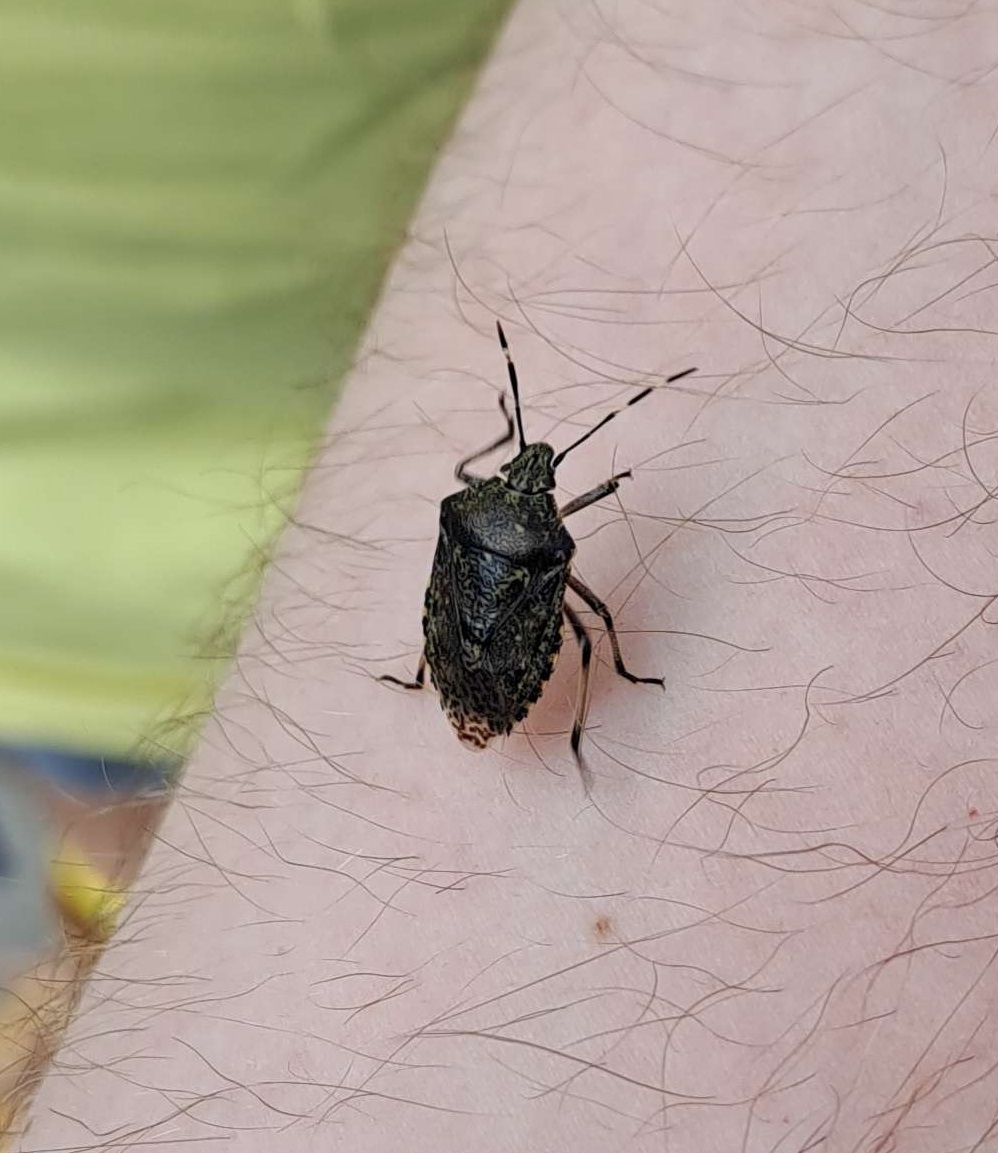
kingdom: Animalia
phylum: Arthropoda
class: Insecta
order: Hemiptera
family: Pentatomidae
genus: Rhaphigaster
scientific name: Rhaphigaster nebulosa
